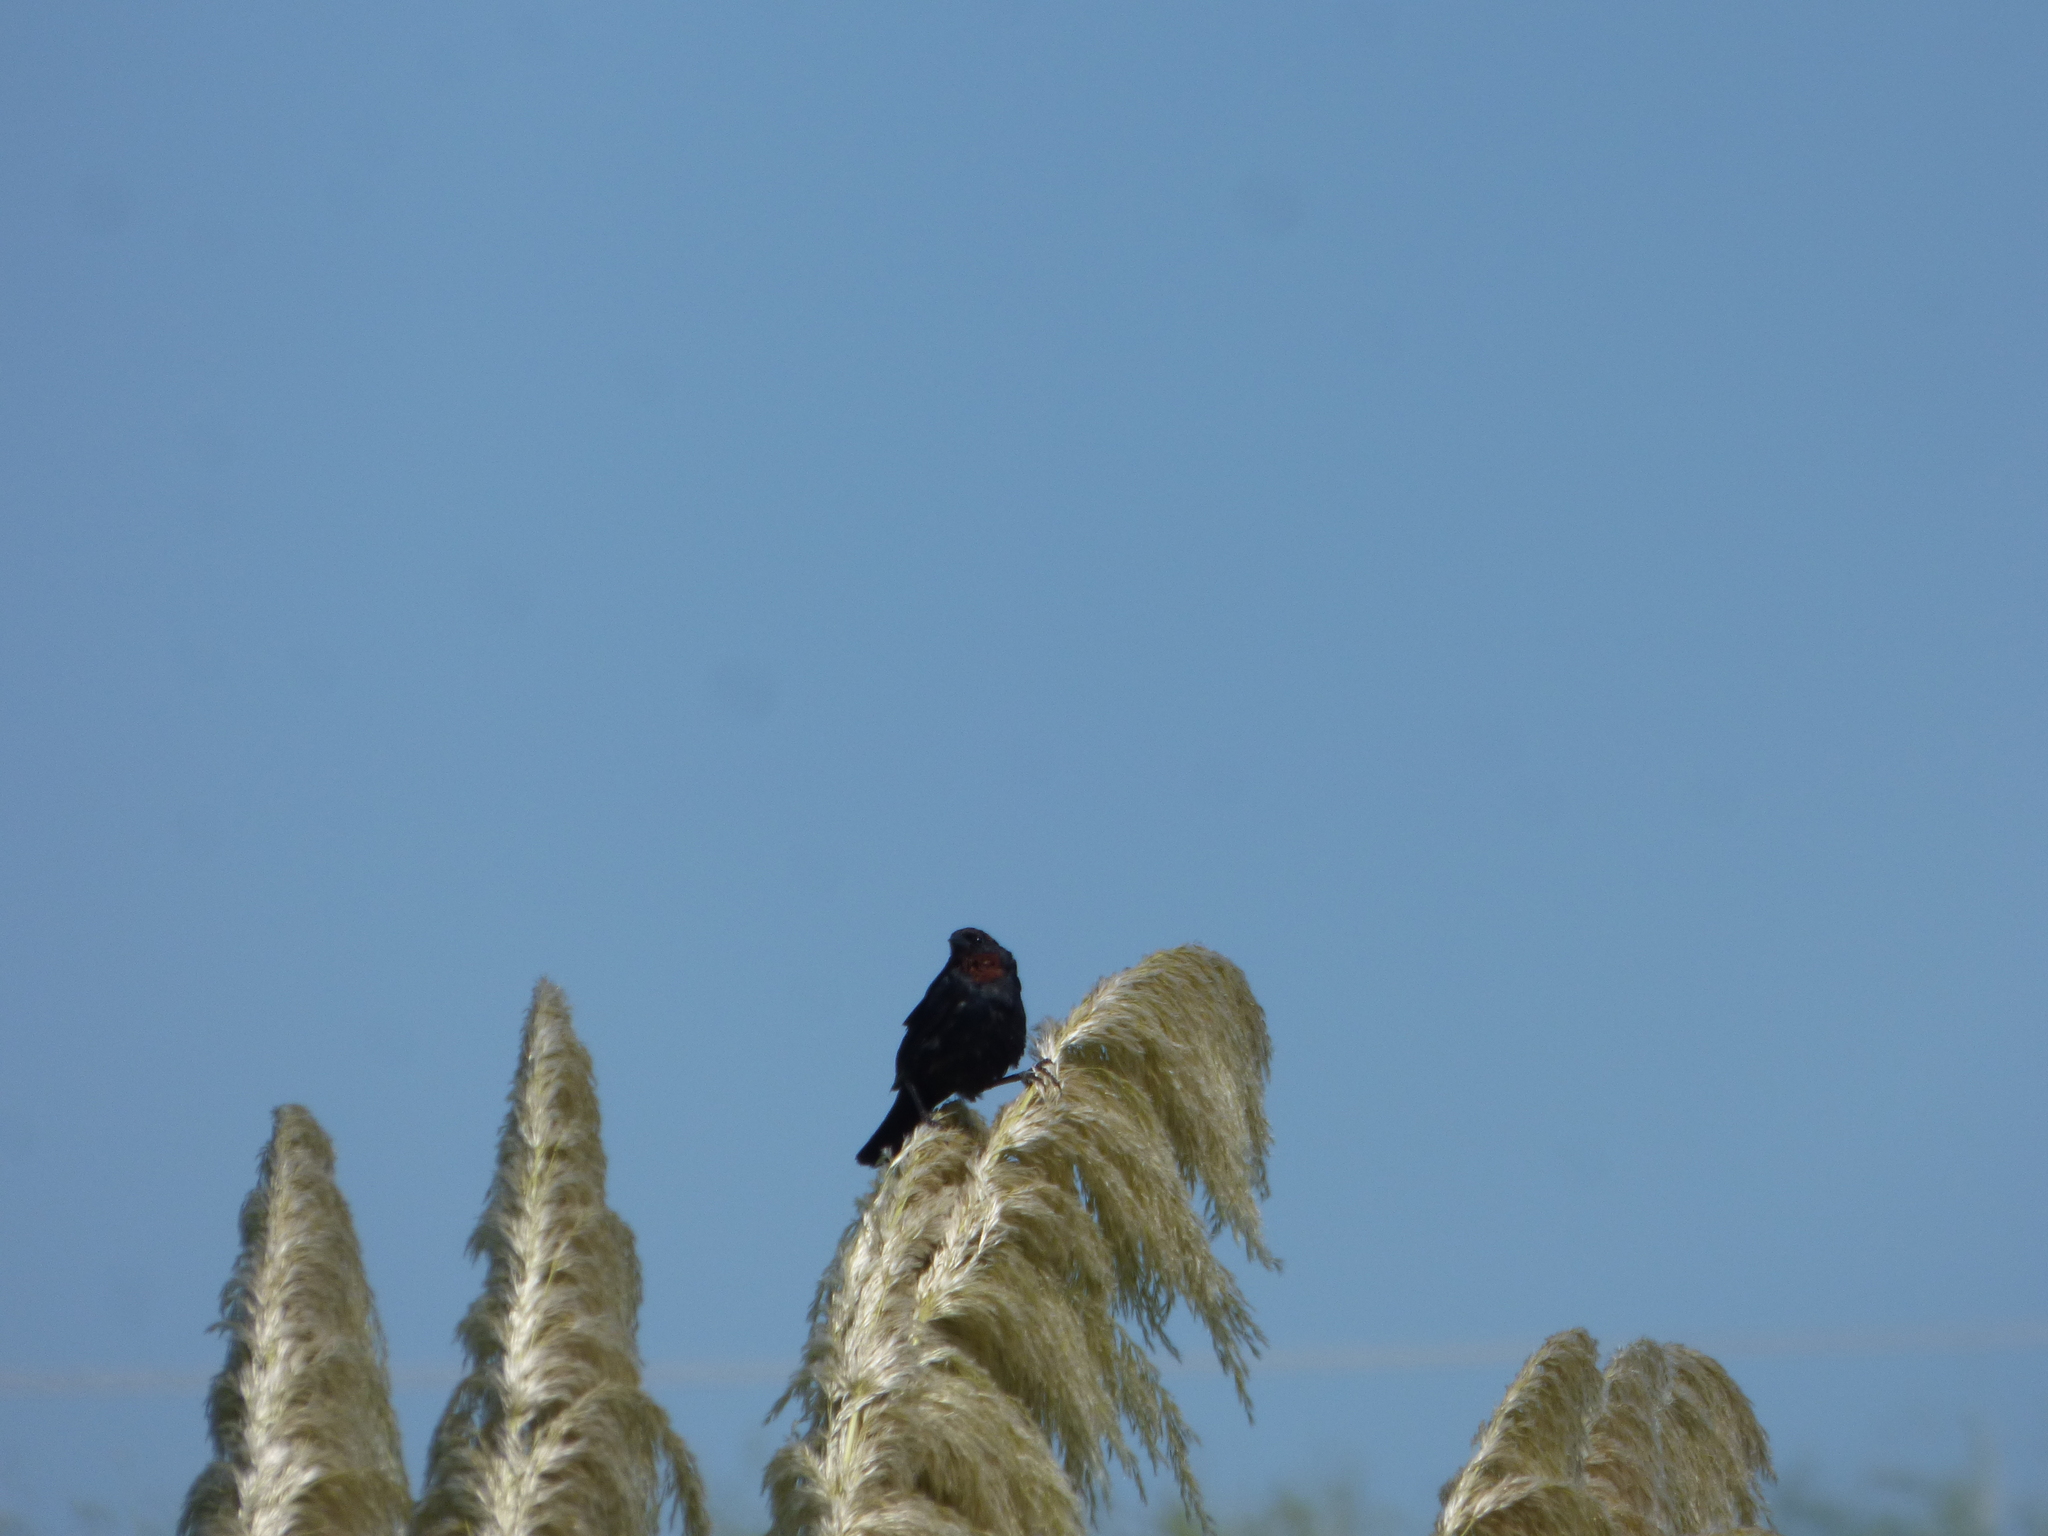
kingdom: Animalia
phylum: Chordata
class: Aves
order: Passeriformes
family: Icteridae
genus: Chrysomus
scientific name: Chrysomus ruficapillus
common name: Chestnut-capped blackbird
